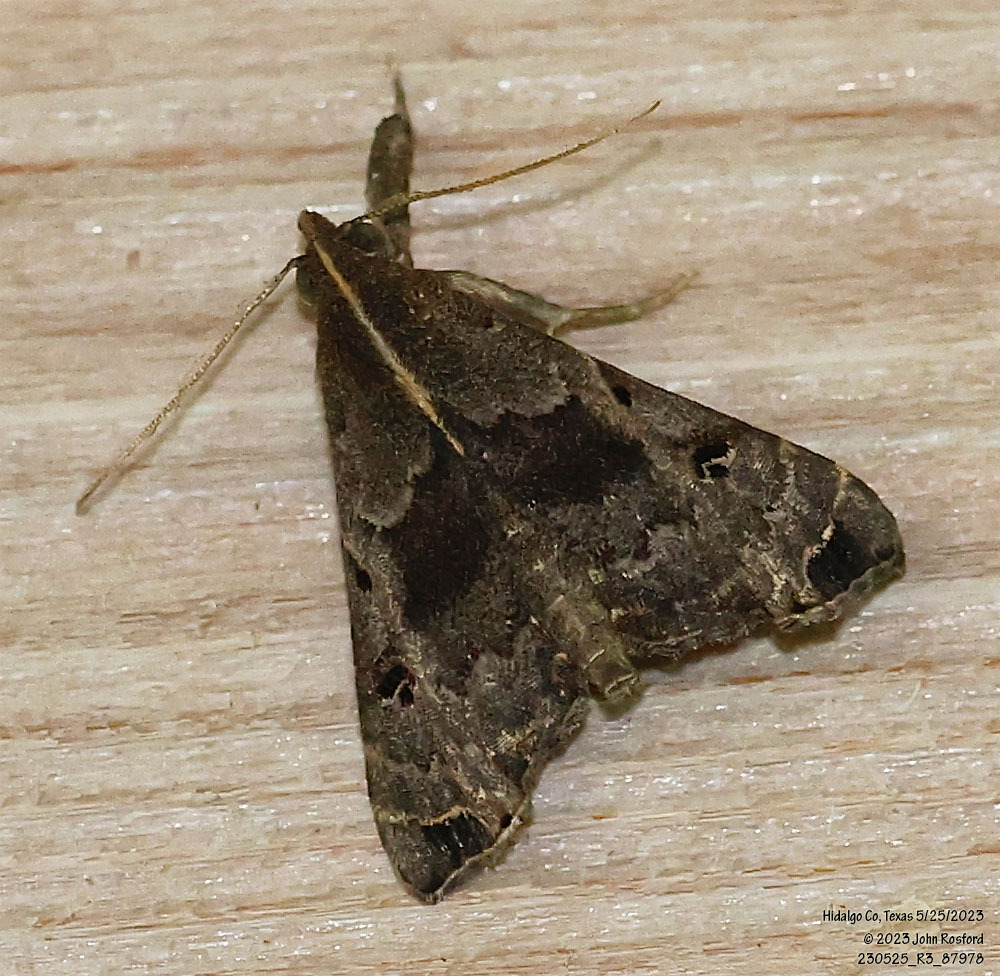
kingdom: Animalia
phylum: Arthropoda
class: Insecta
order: Lepidoptera
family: Erebidae
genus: Palthis
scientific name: Palthis asopialis
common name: Faint-spotted palthis moth
